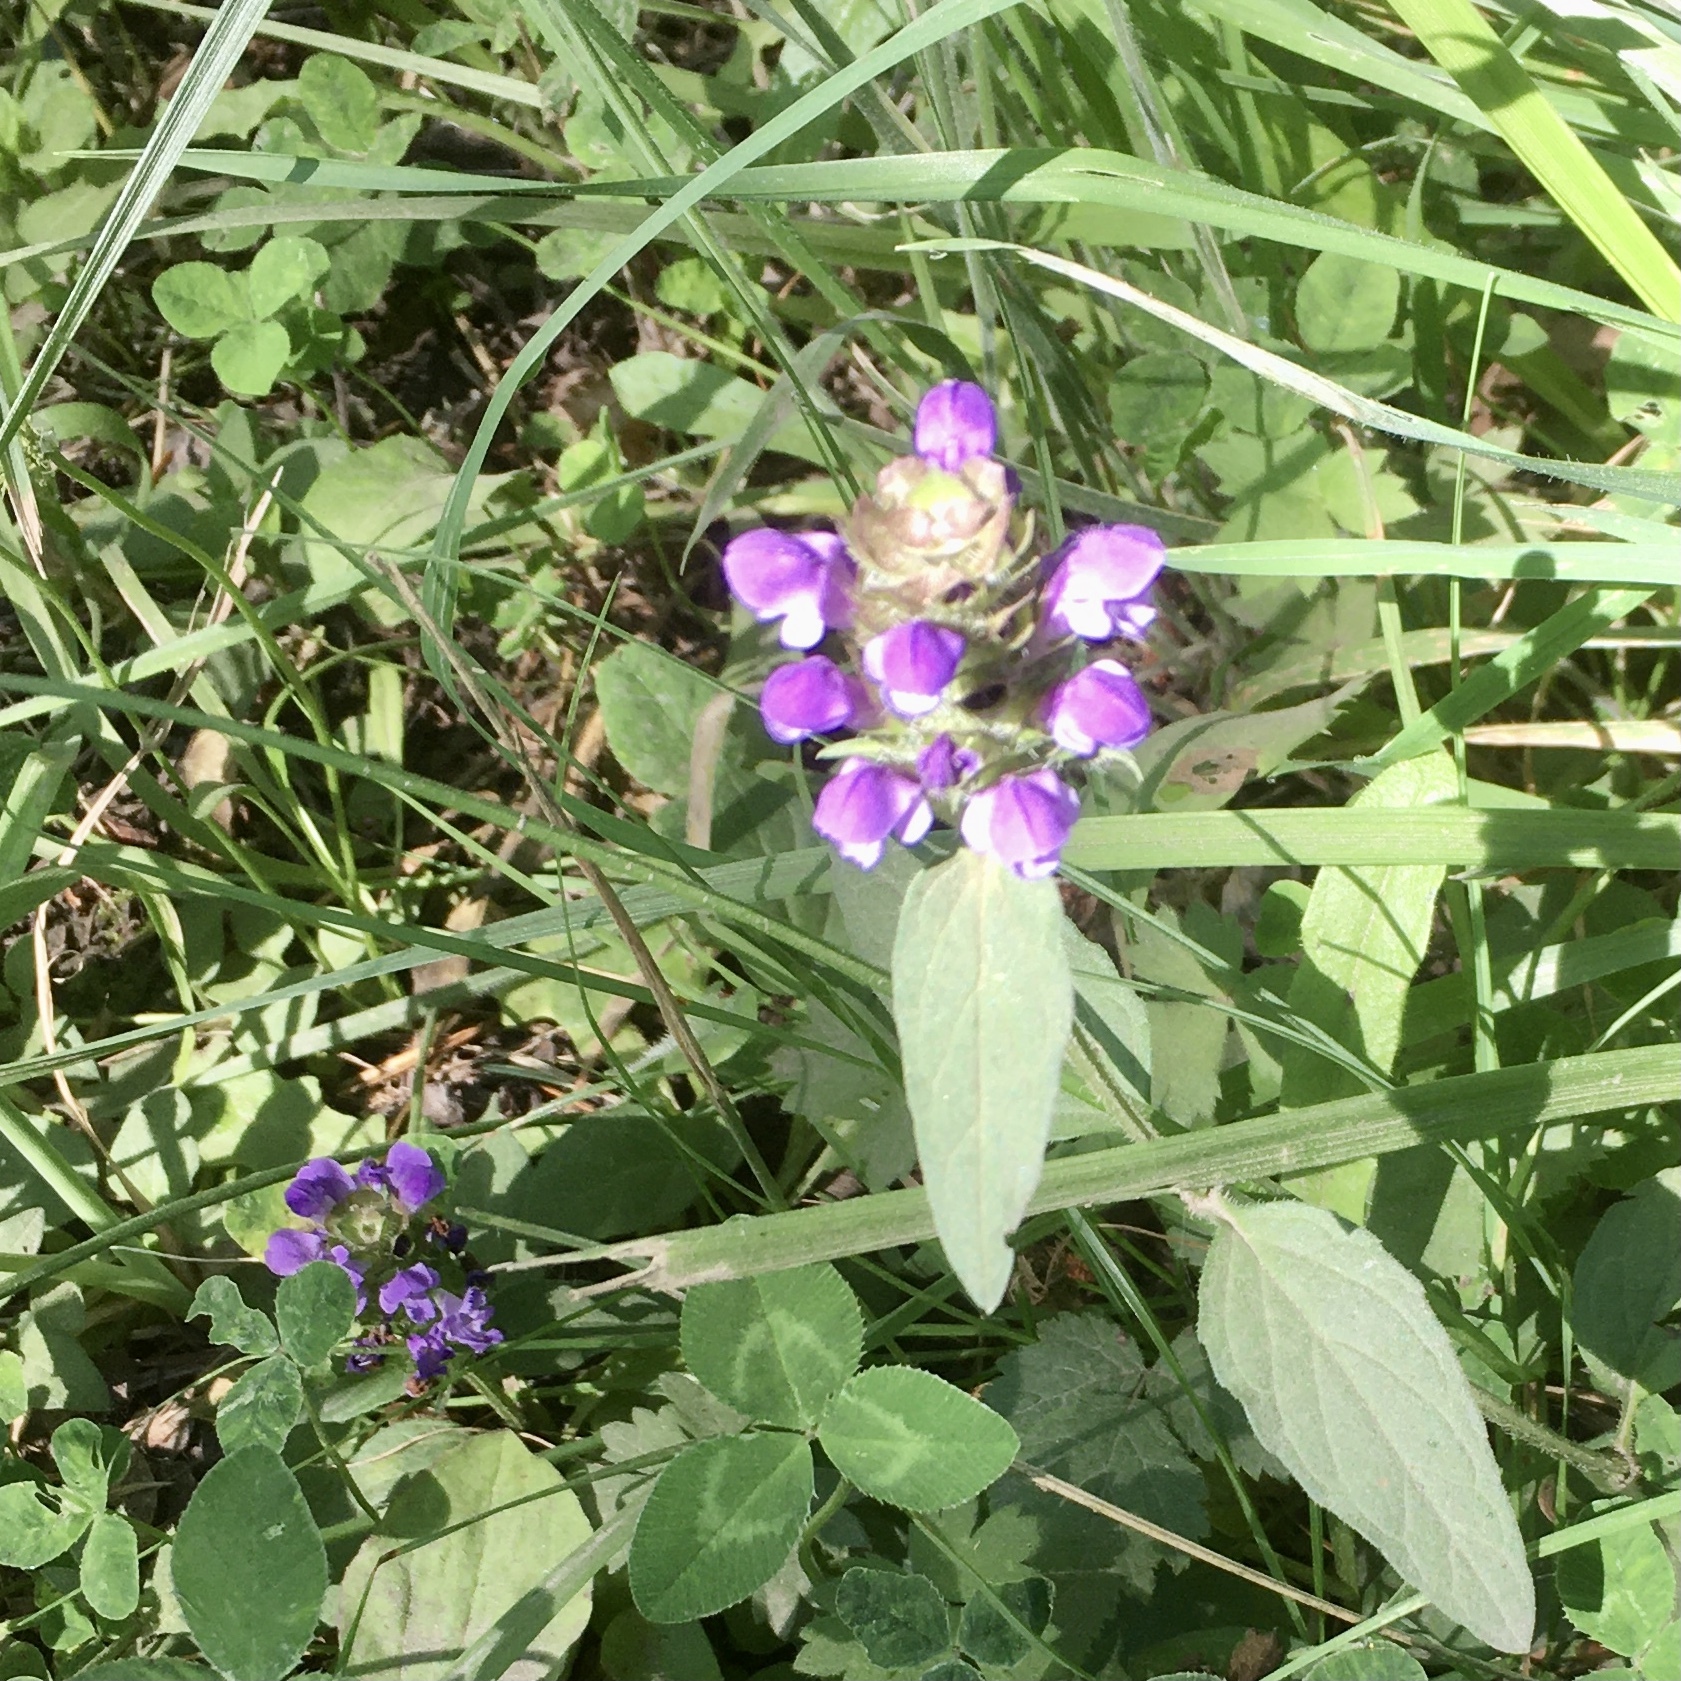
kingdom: Plantae
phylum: Tracheophyta
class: Magnoliopsida
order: Lamiales
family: Lamiaceae
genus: Prunella
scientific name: Prunella vulgaris
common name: Heal-all
